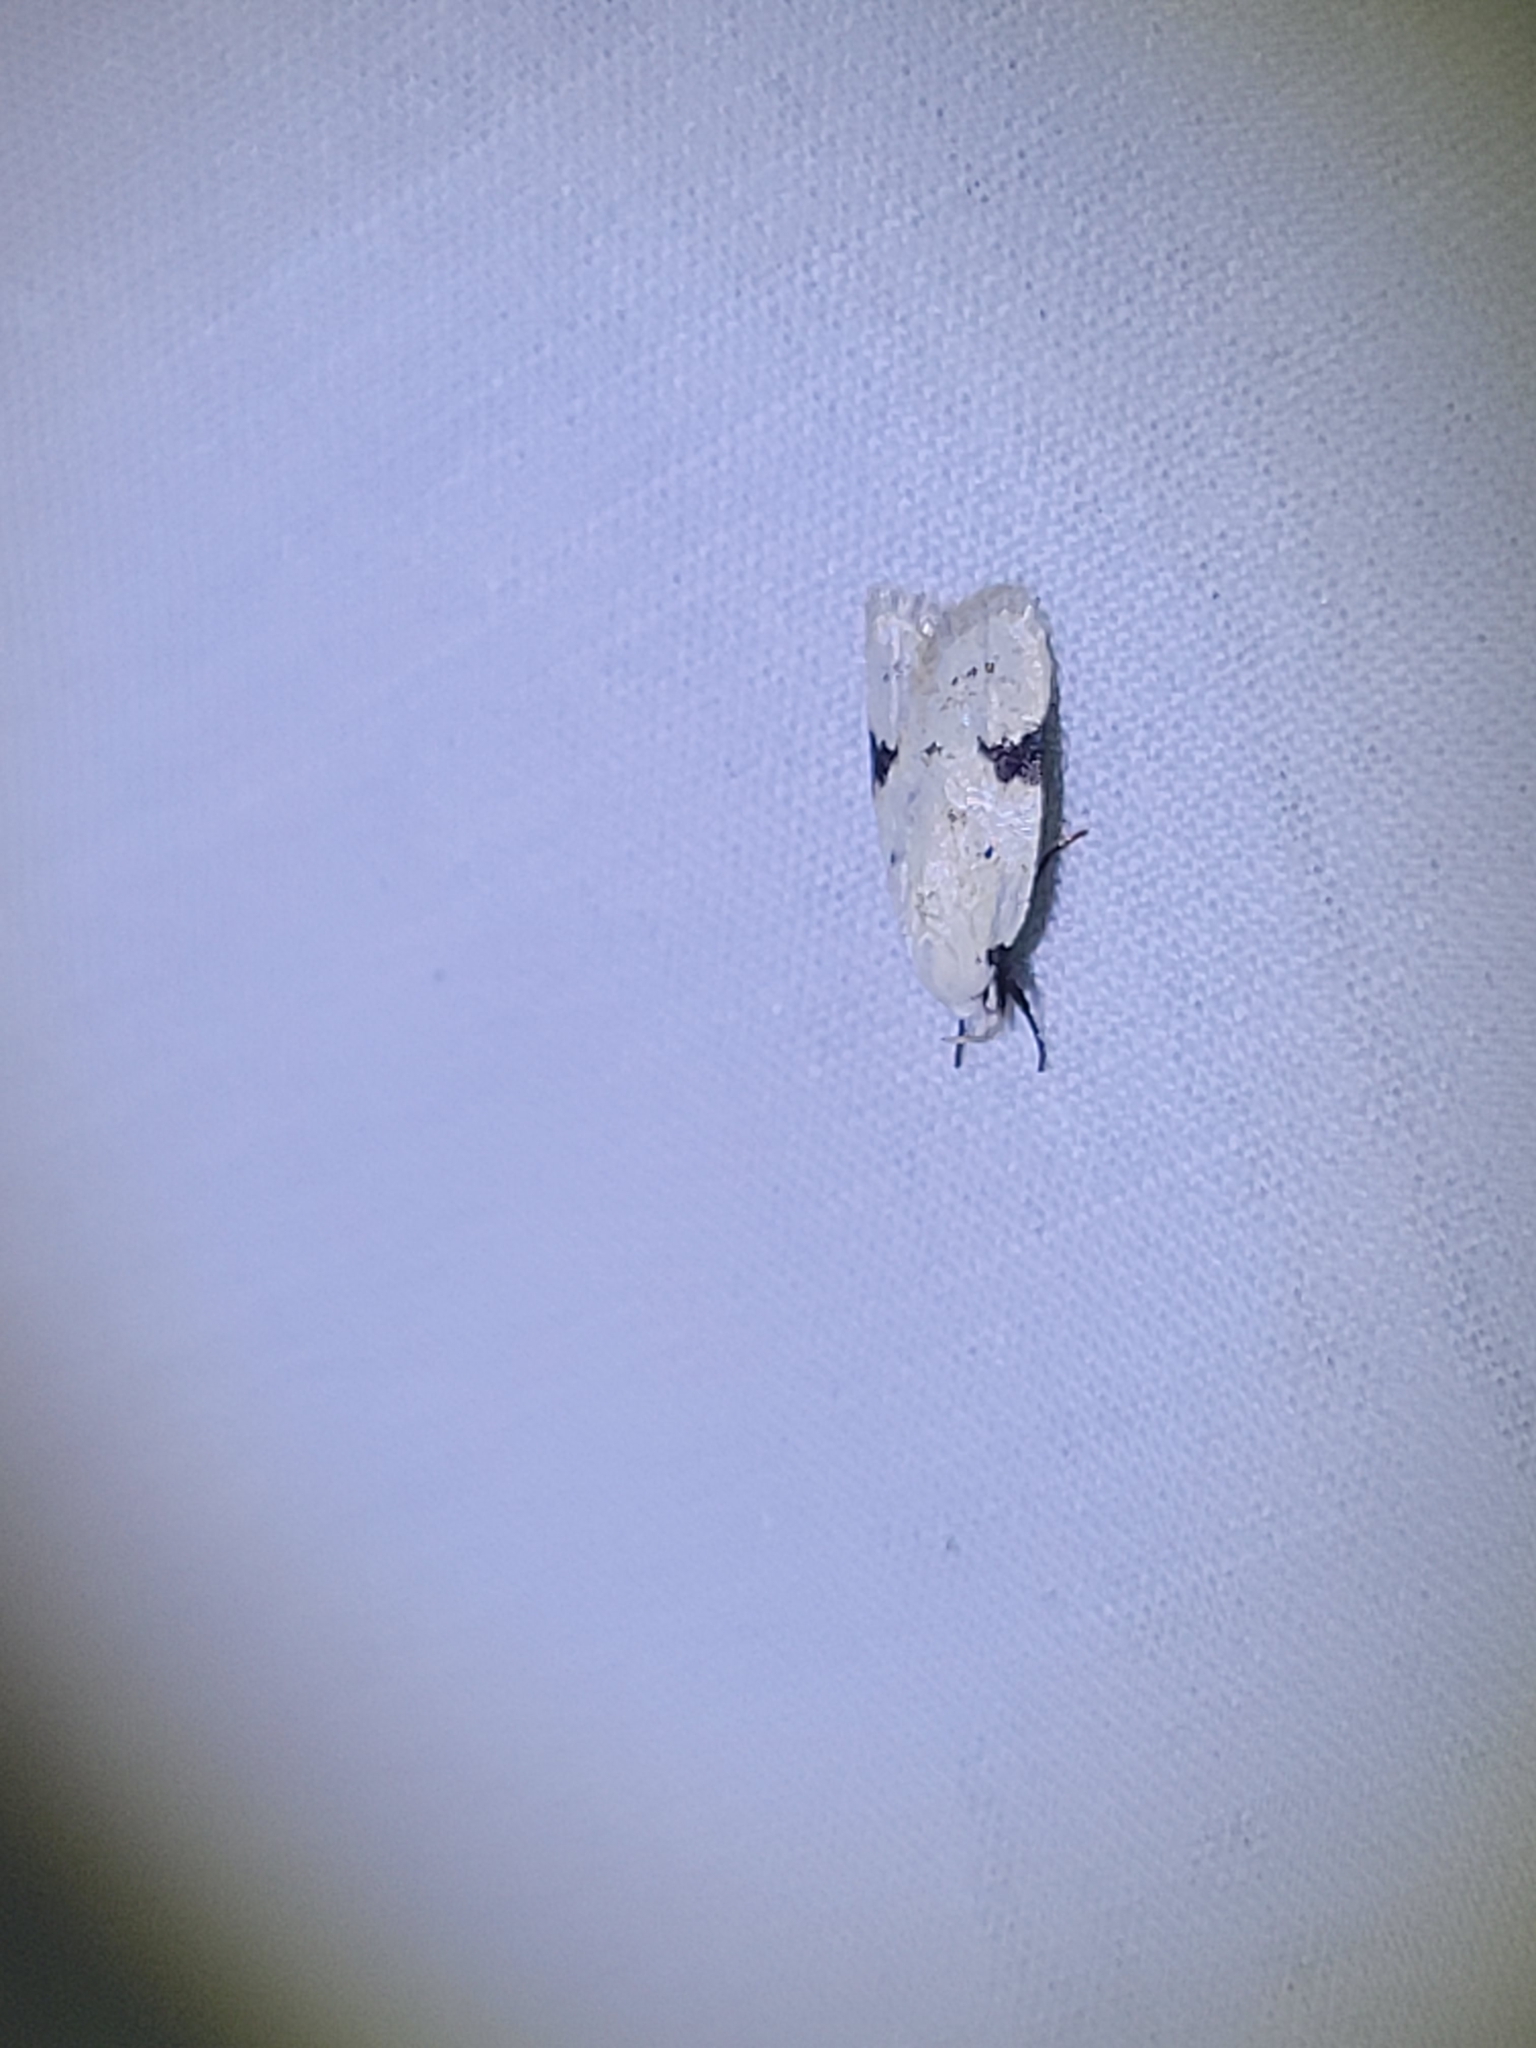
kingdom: Animalia
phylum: Arthropoda
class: Insecta
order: Lepidoptera
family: Oecophoridae
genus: Inga
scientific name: Inga sparsiciliella
